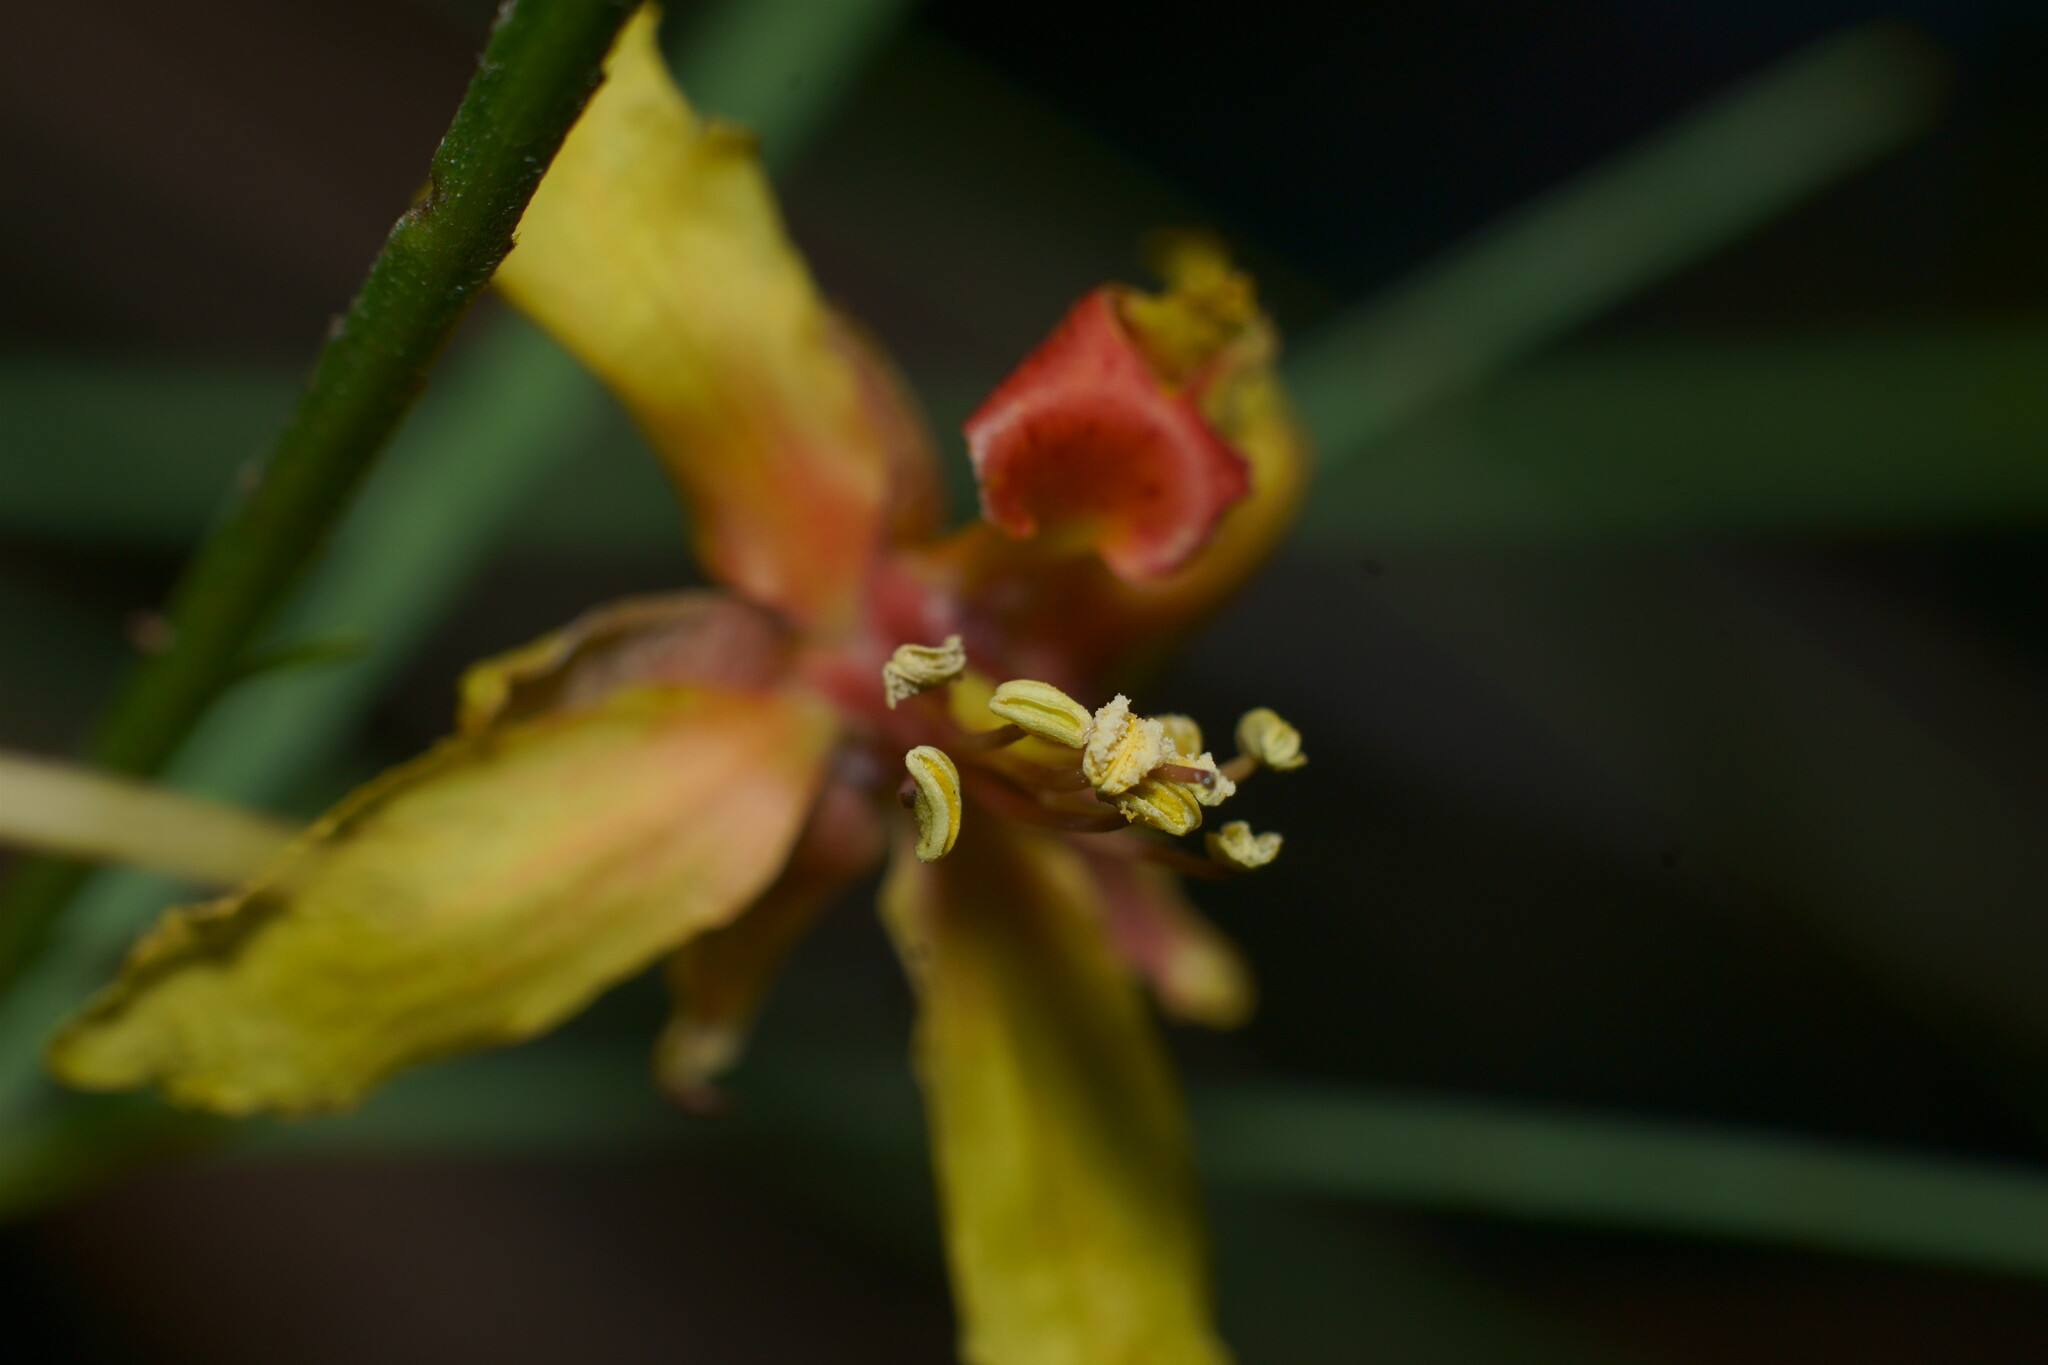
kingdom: Plantae
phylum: Tracheophyta
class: Magnoliopsida
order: Fabales
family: Fabaceae
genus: Parkinsonia
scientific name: Parkinsonia aculeata
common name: Jerusalem thorn
